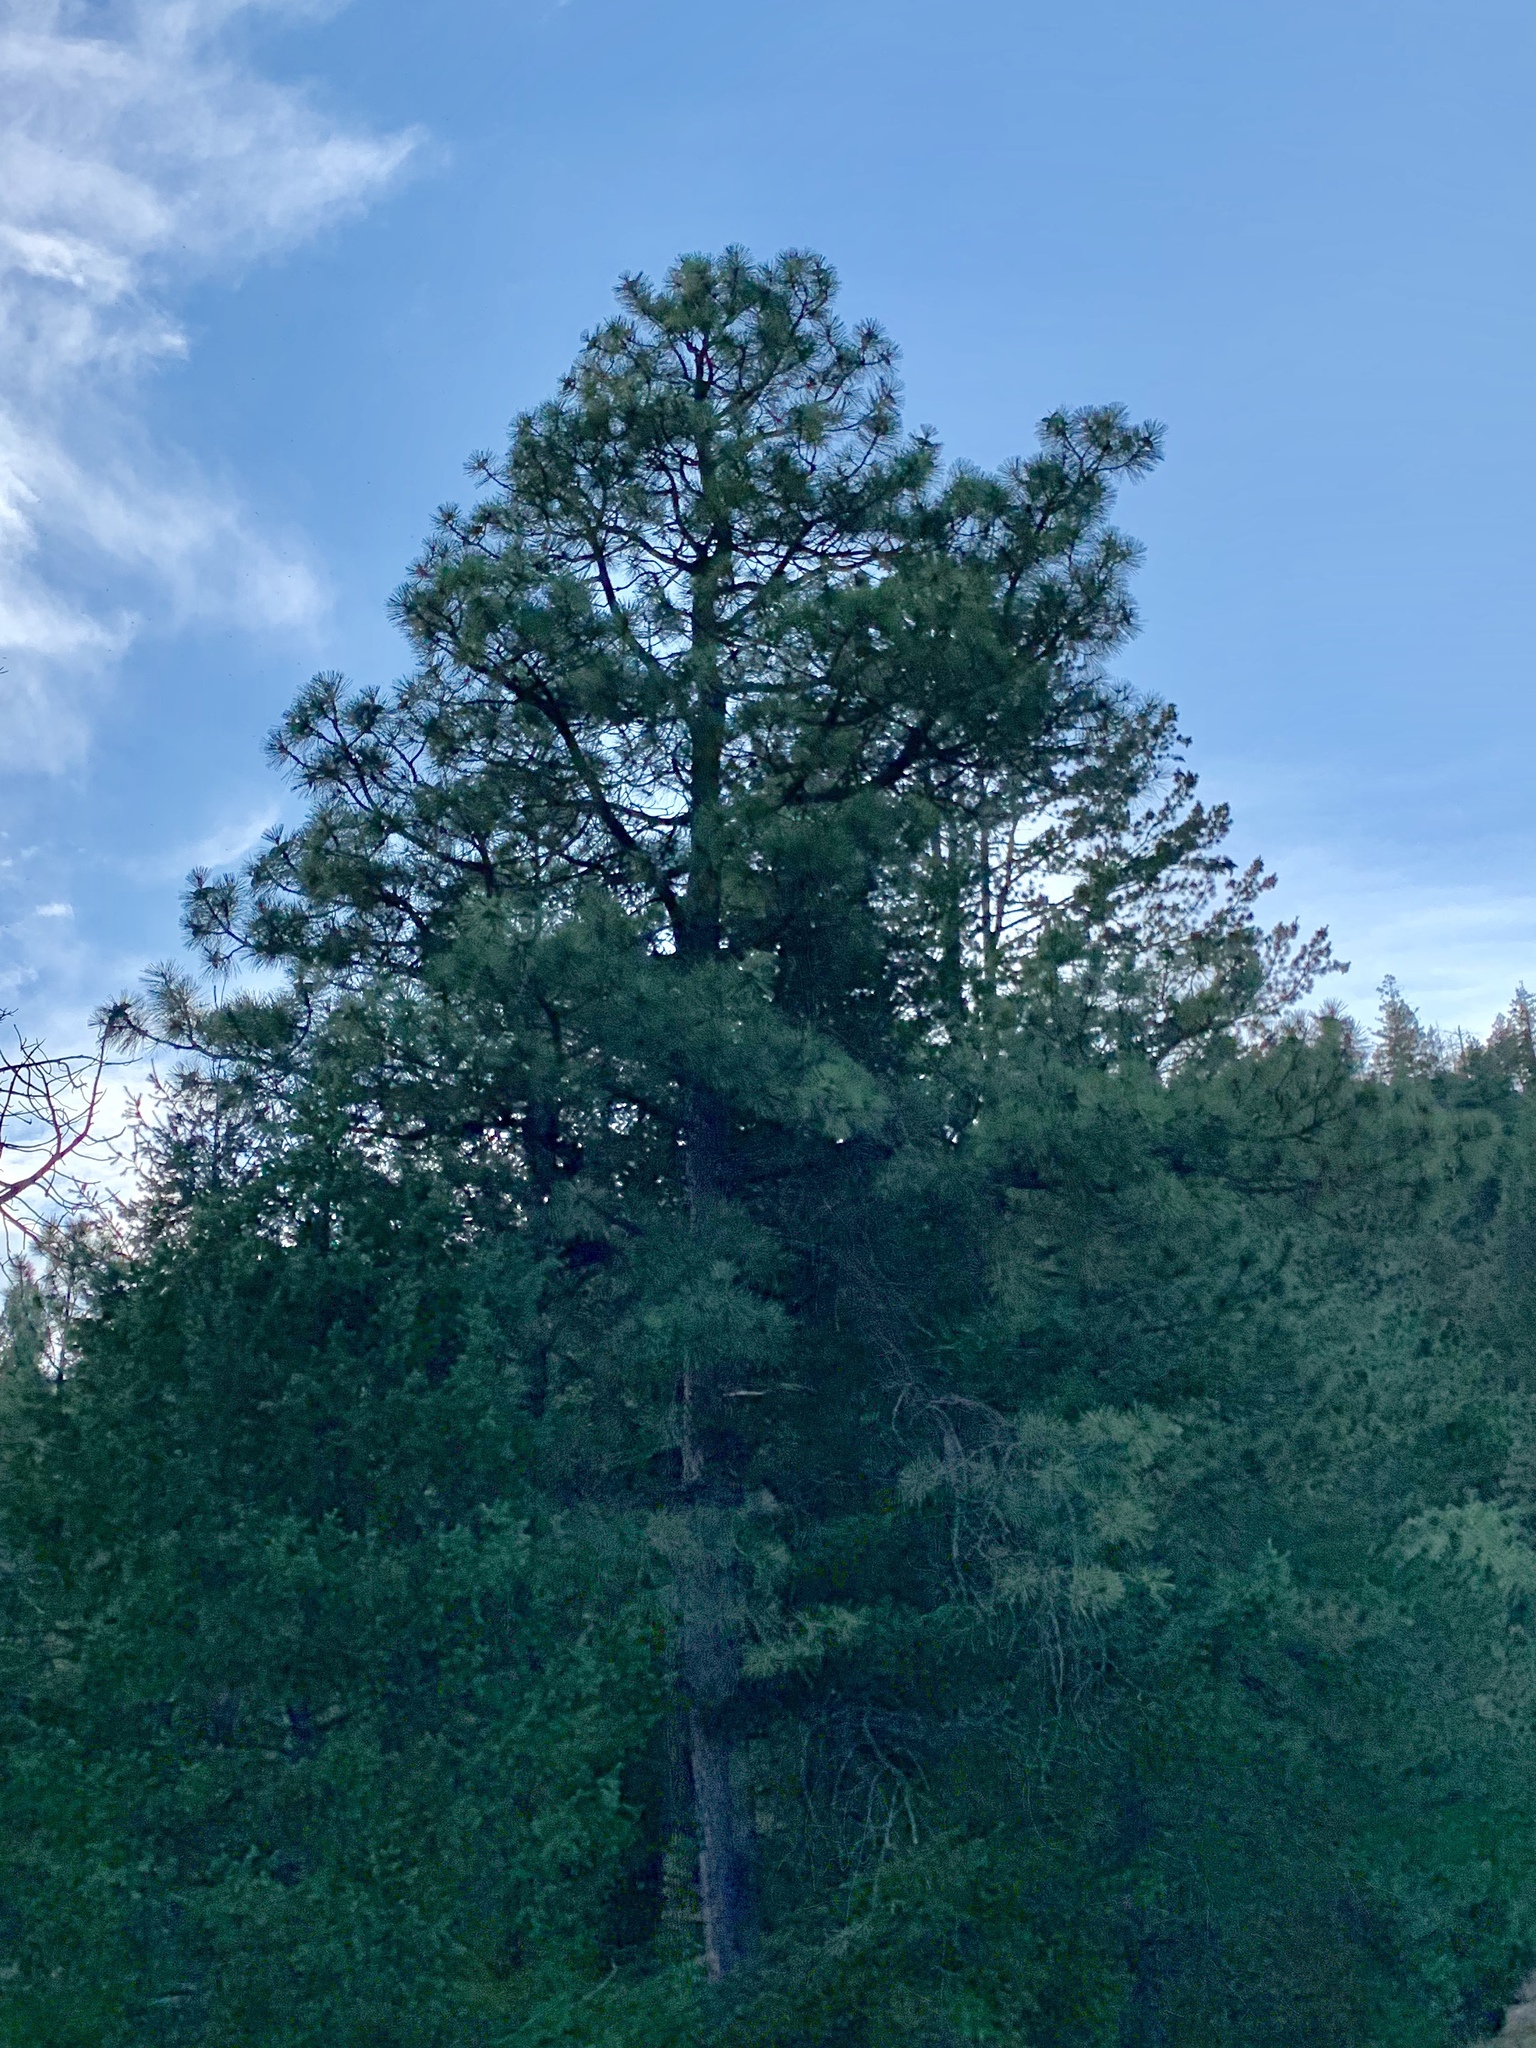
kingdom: Plantae
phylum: Tracheophyta
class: Pinopsida
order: Pinales
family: Pinaceae
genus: Pinus
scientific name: Pinus ponderosa
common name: Western yellow-pine
